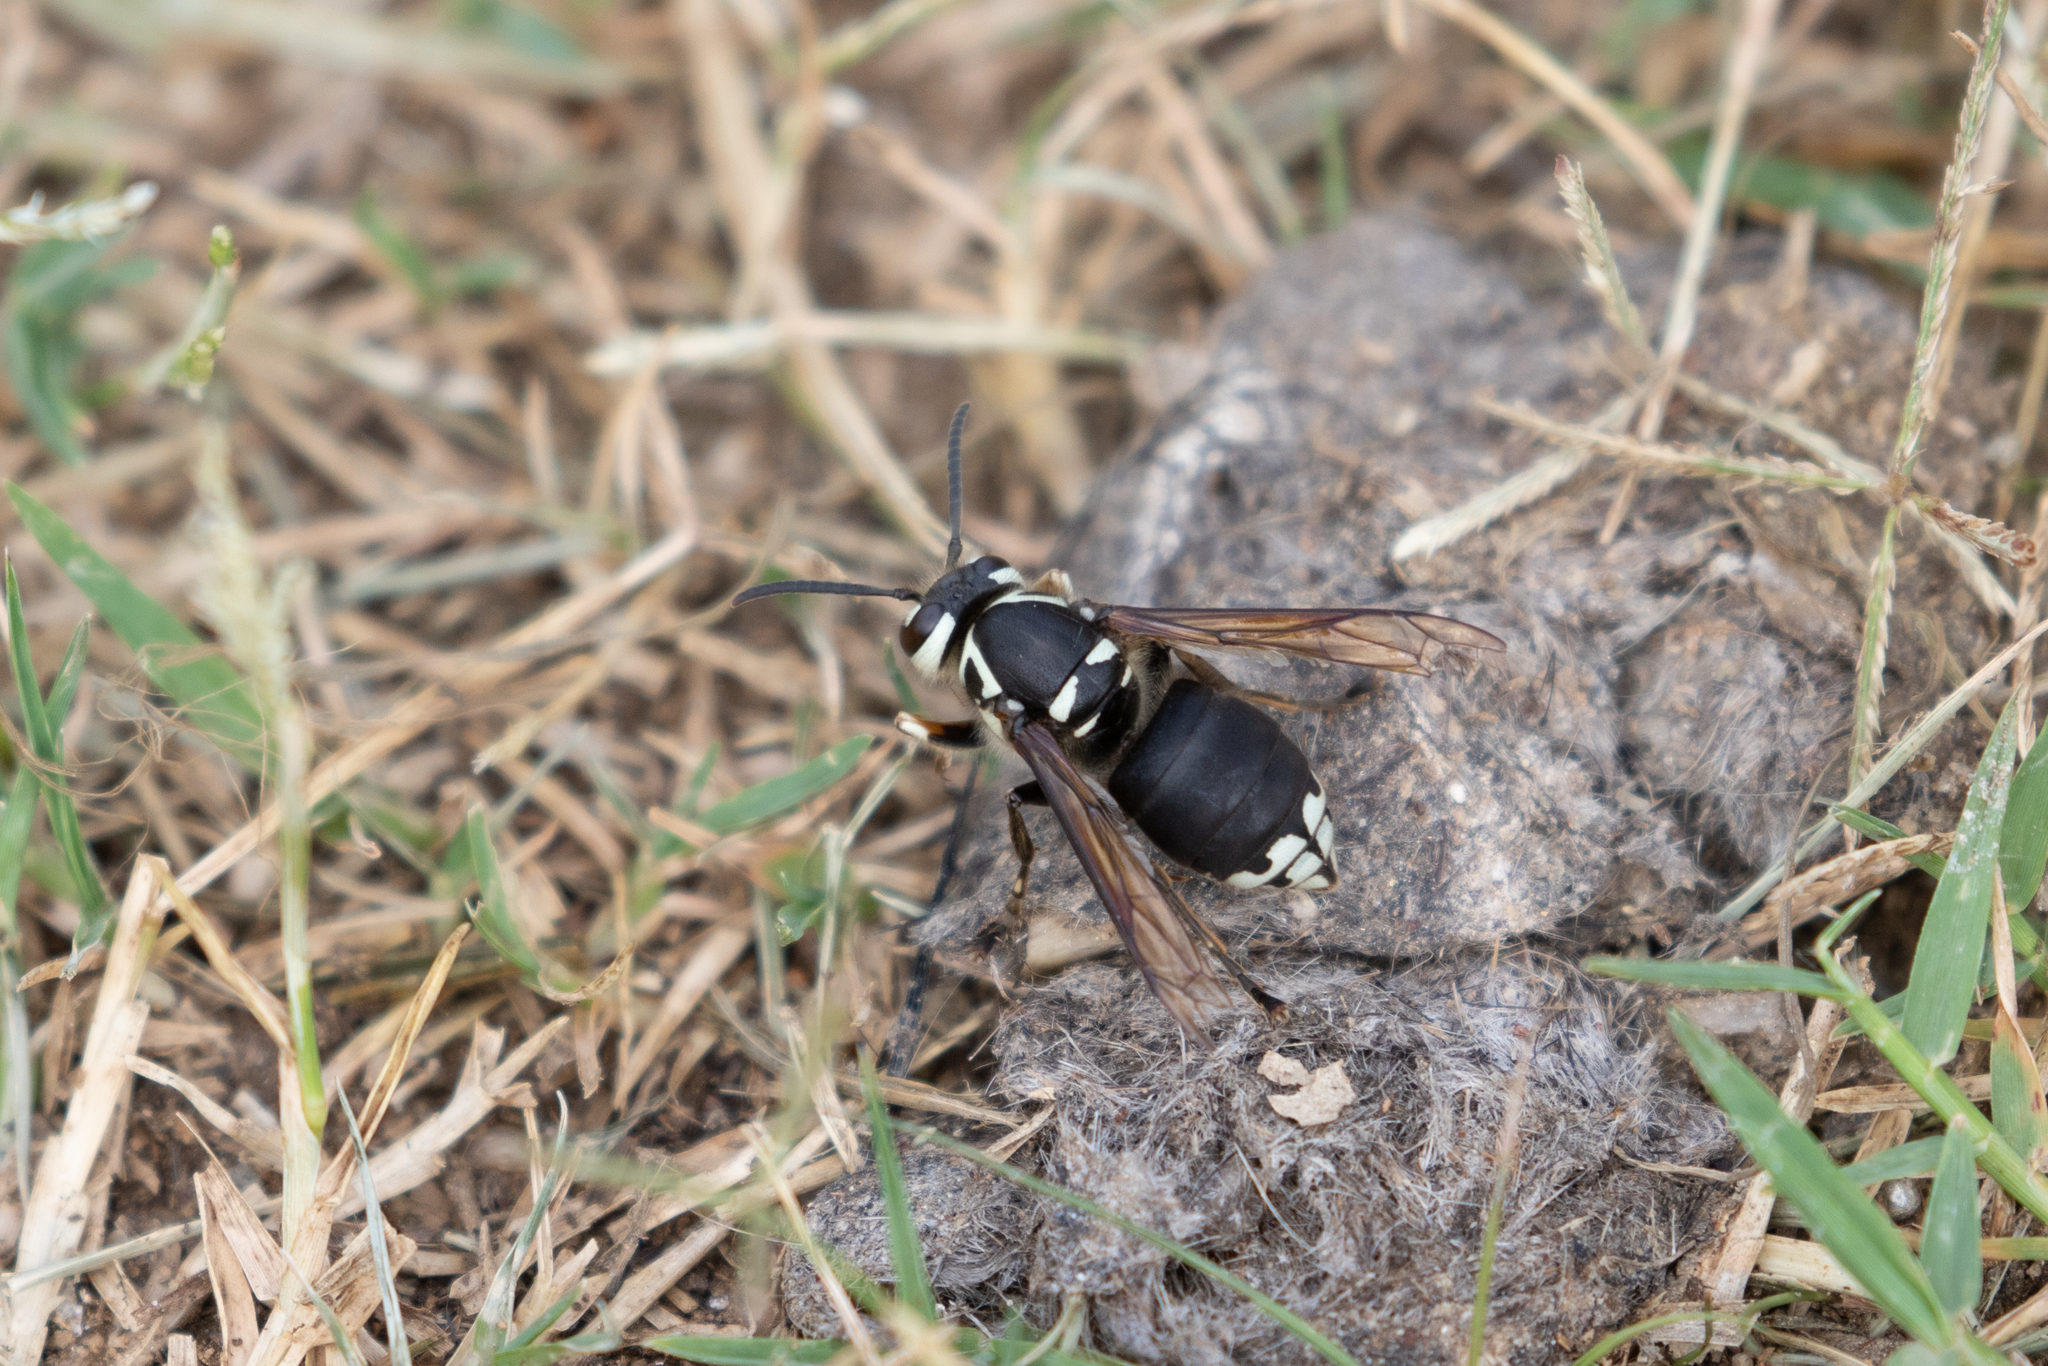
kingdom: Animalia
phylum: Arthropoda
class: Insecta
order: Hymenoptera
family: Vespidae
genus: Dolichovespula
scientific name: Dolichovespula maculata
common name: Bald-faced hornet
